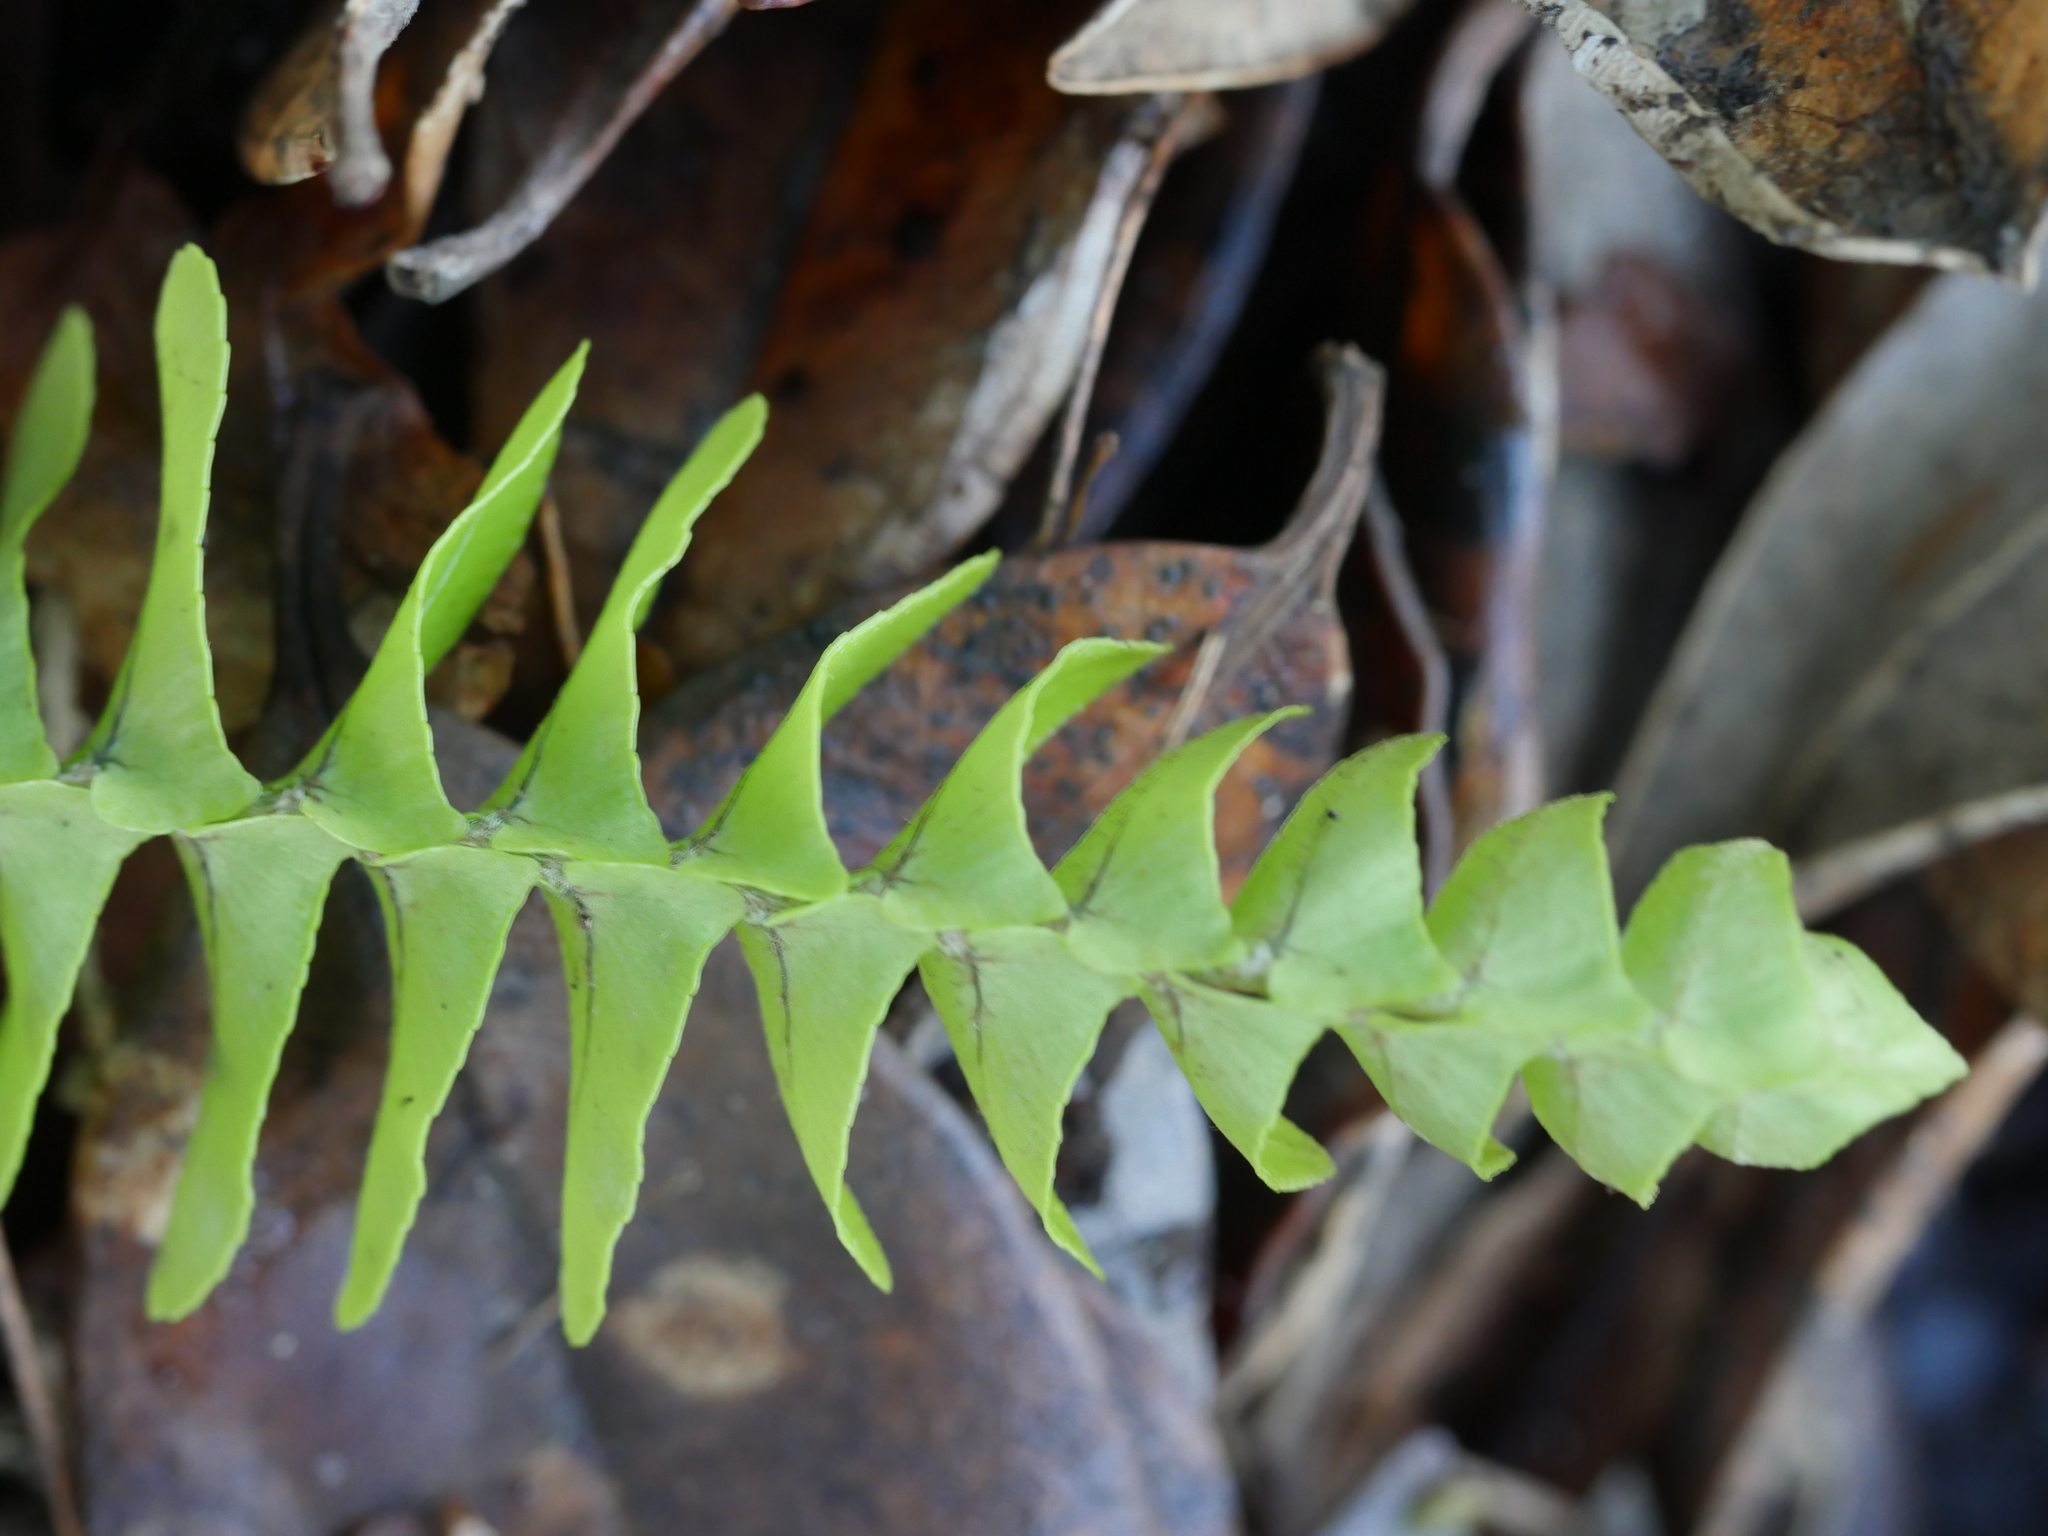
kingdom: Plantae
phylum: Tracheophyta
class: Polypodiopsida
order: Polypodiales
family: Nephrolepidaceae
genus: Nephrolepis
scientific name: Nephrolepis cordifolia
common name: Narrow swordfern
